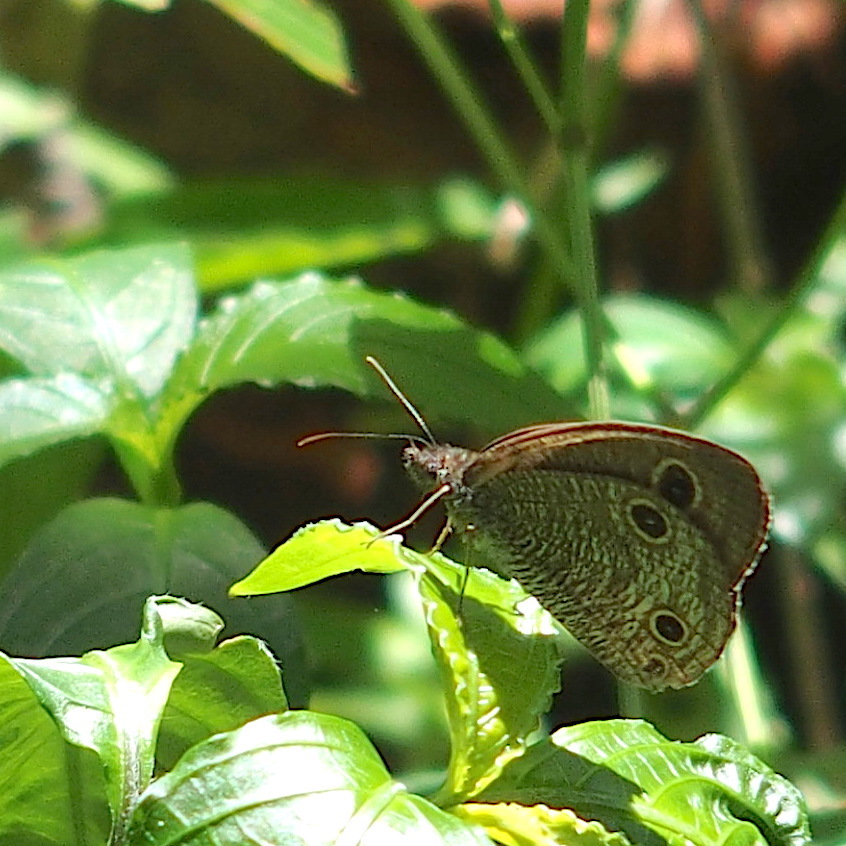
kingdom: Animalia
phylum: Arthropoda
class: Insecta
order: Lepidoptera
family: Nymphalidae
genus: Ypthima
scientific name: Ypthima multistriata
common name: Striated ringlet
